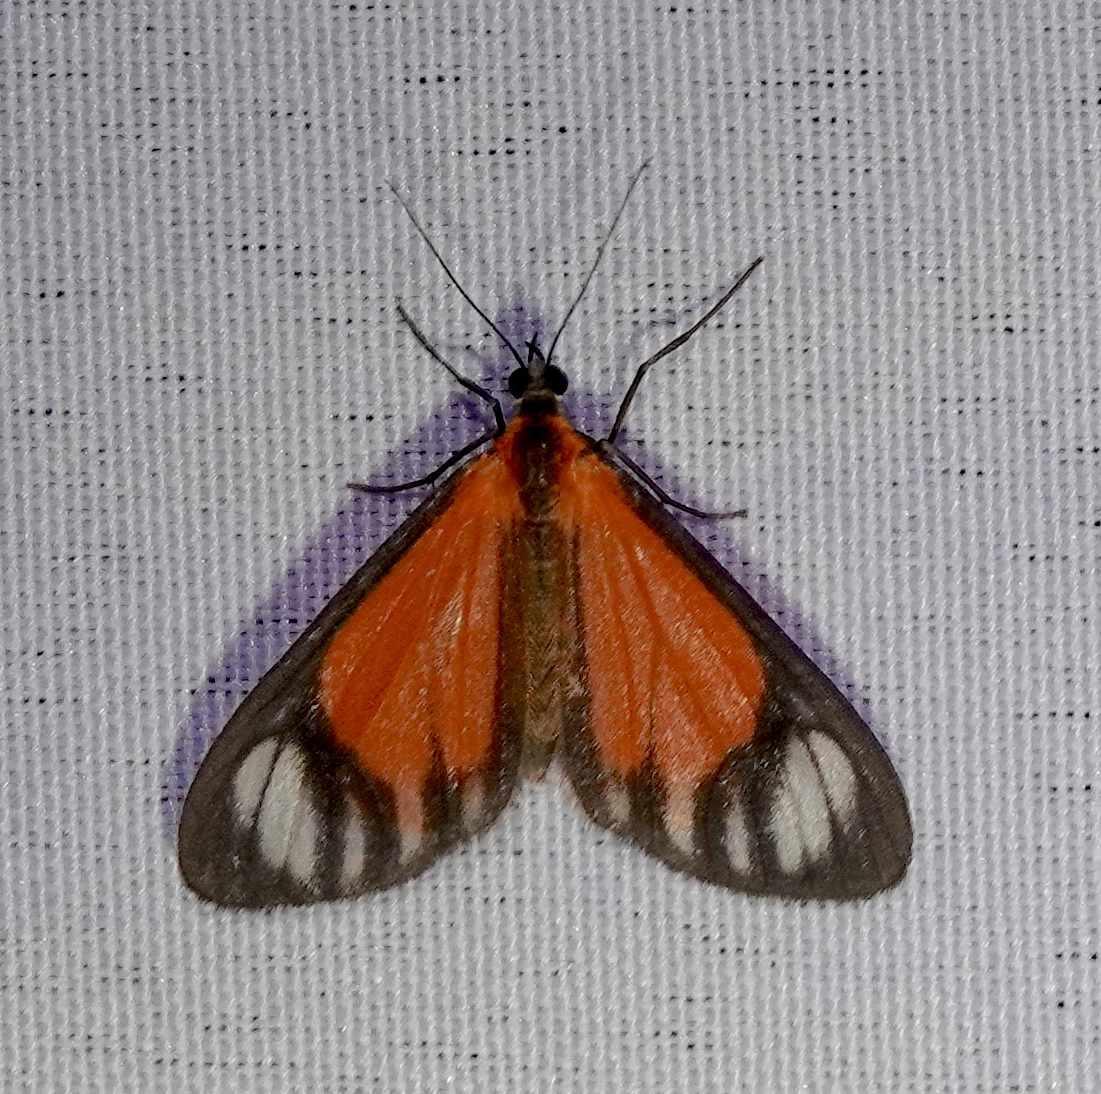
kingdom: Animalia
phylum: Arthropoda
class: Insecta
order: Lepidoptera
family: Geometridae
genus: Eudule
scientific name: Eudule amica
